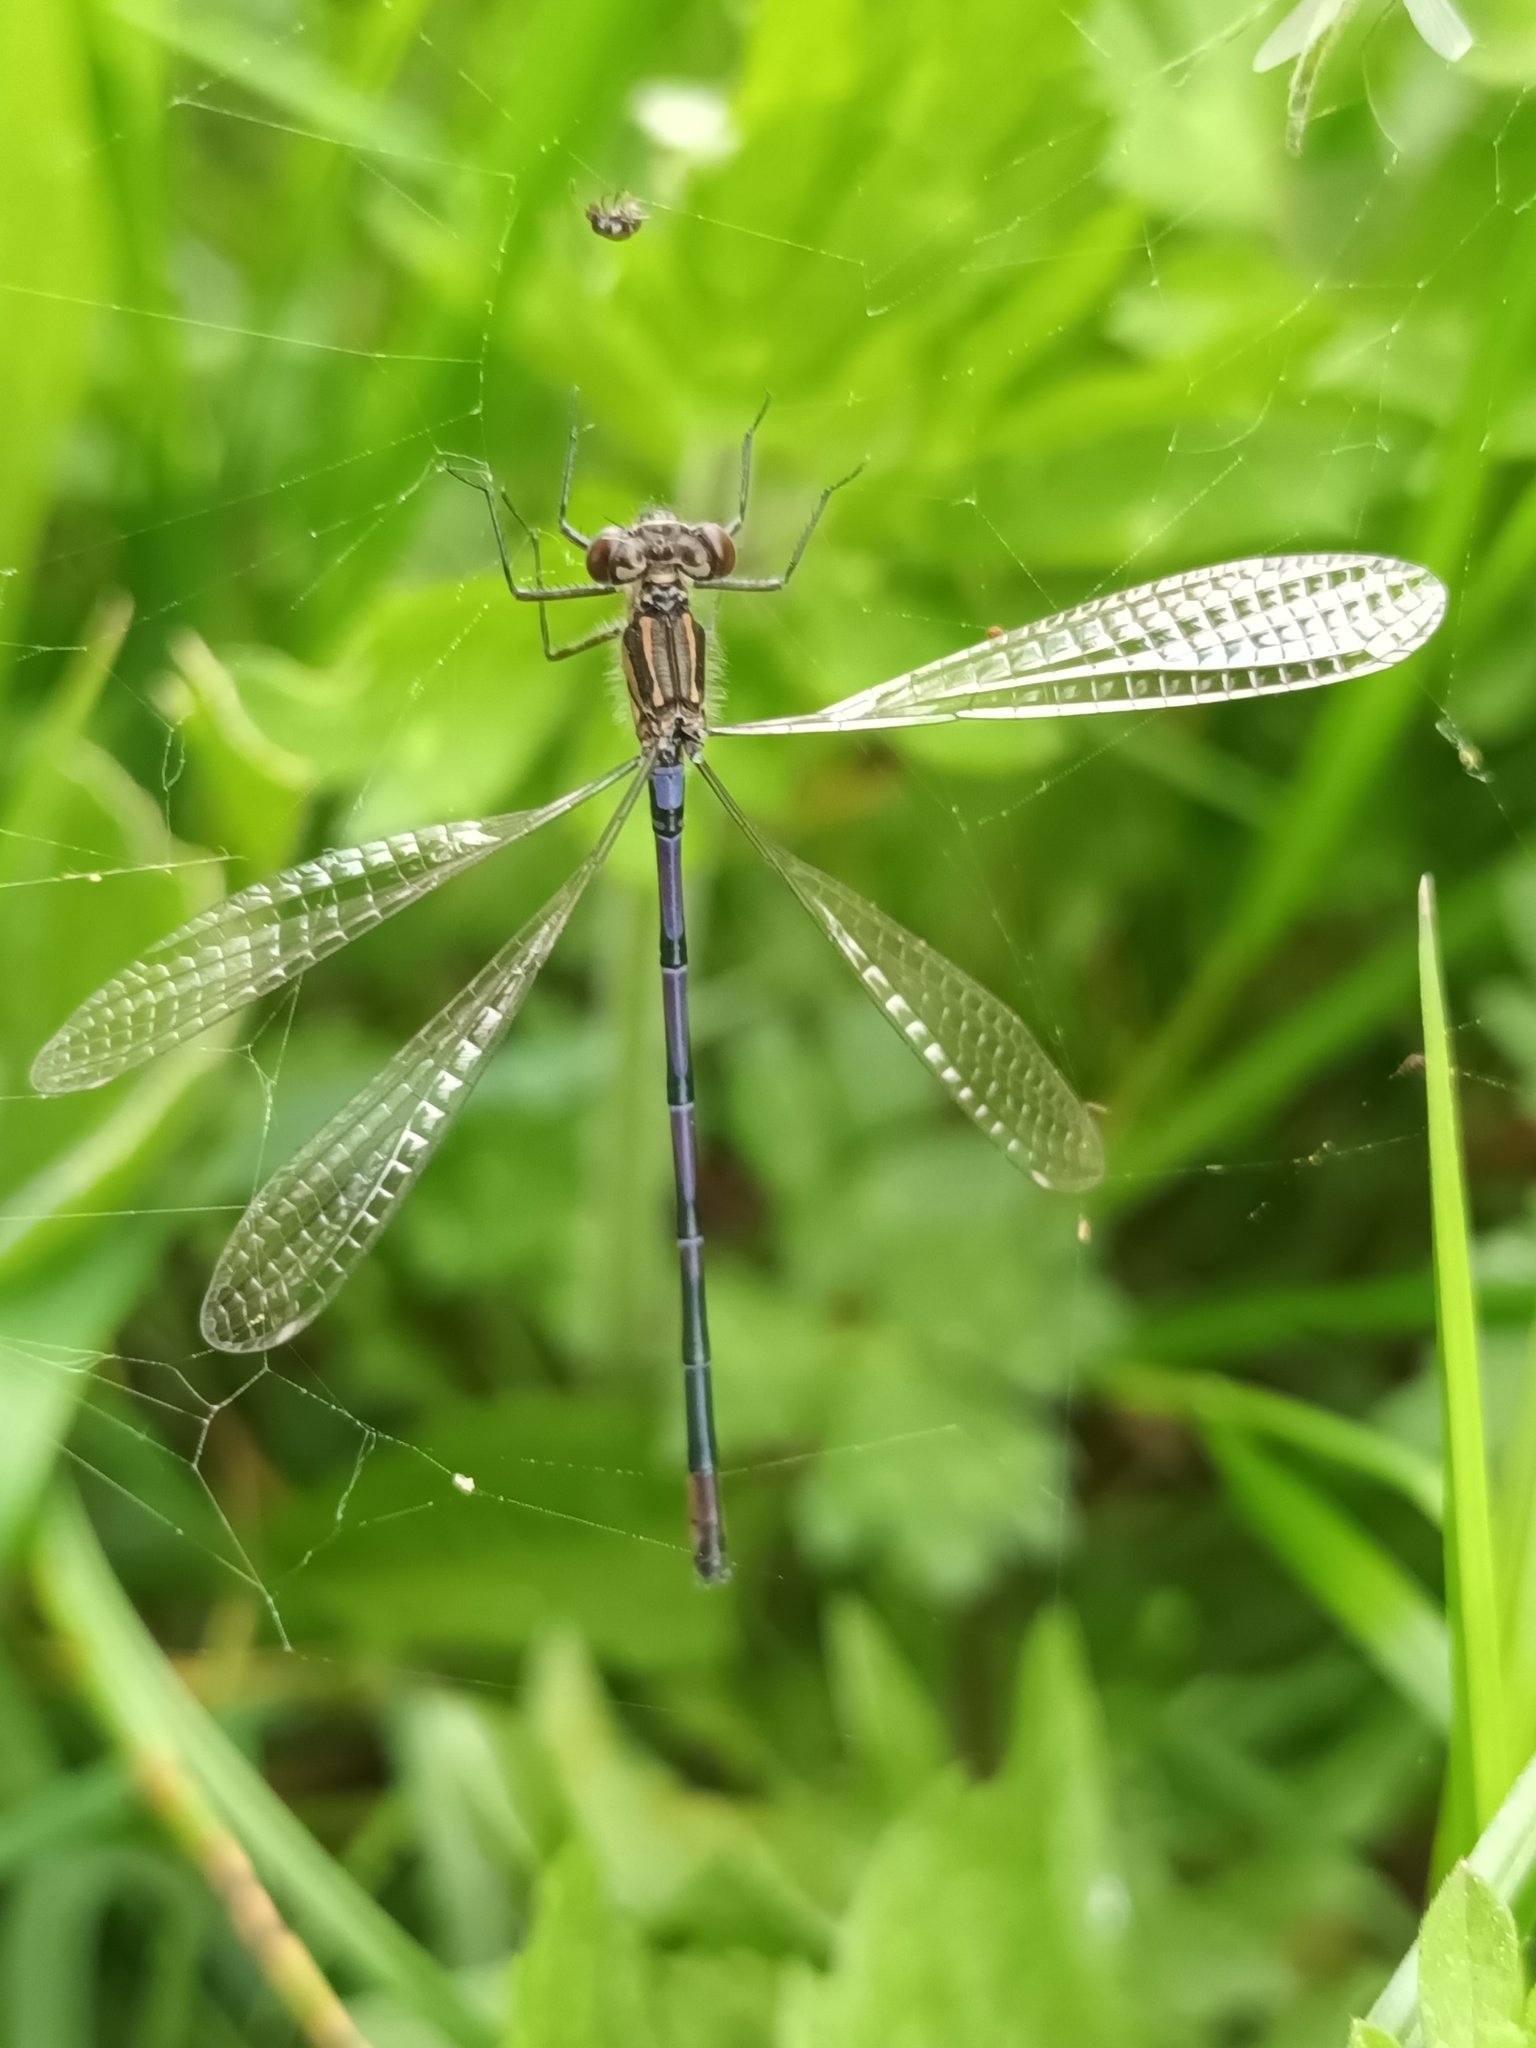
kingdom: Animalia
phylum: Arthropoda
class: Insecta
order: Odonata
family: Coenagrionidae
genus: Coenagrion
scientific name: Coenagrion pulchellum
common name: Variable bluet
